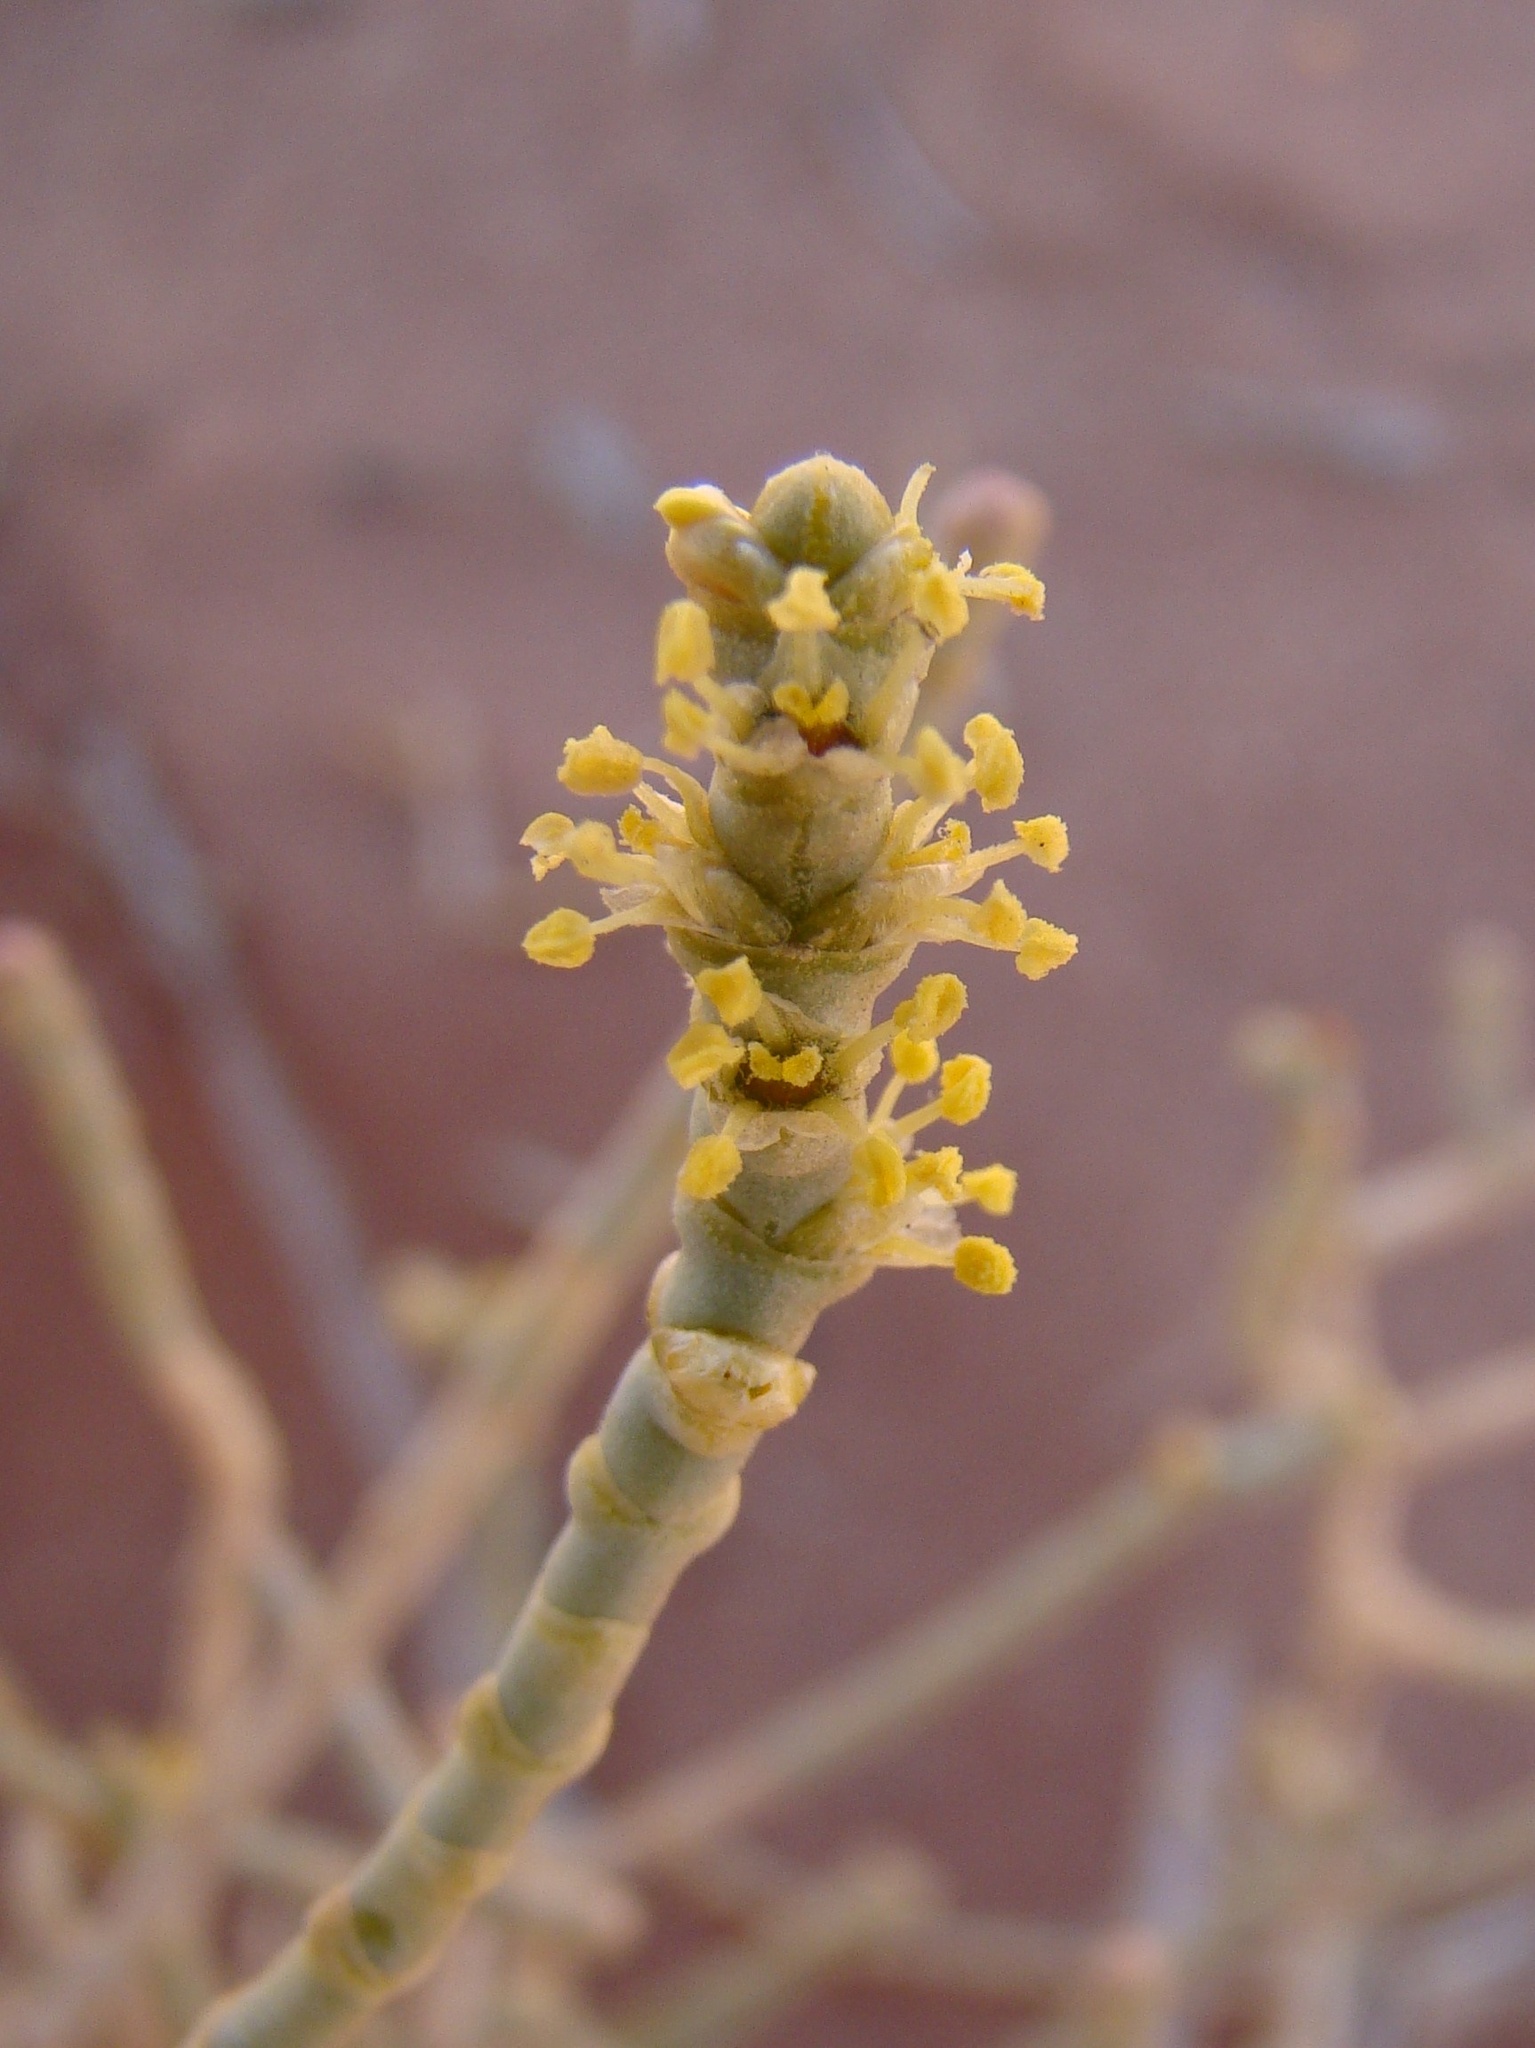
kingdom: Plantae
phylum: Tracheophyta
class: Magnoliopsida
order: Caryophyllales
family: Amaranthaceae
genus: Anabasis
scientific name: Anabasis articulata
